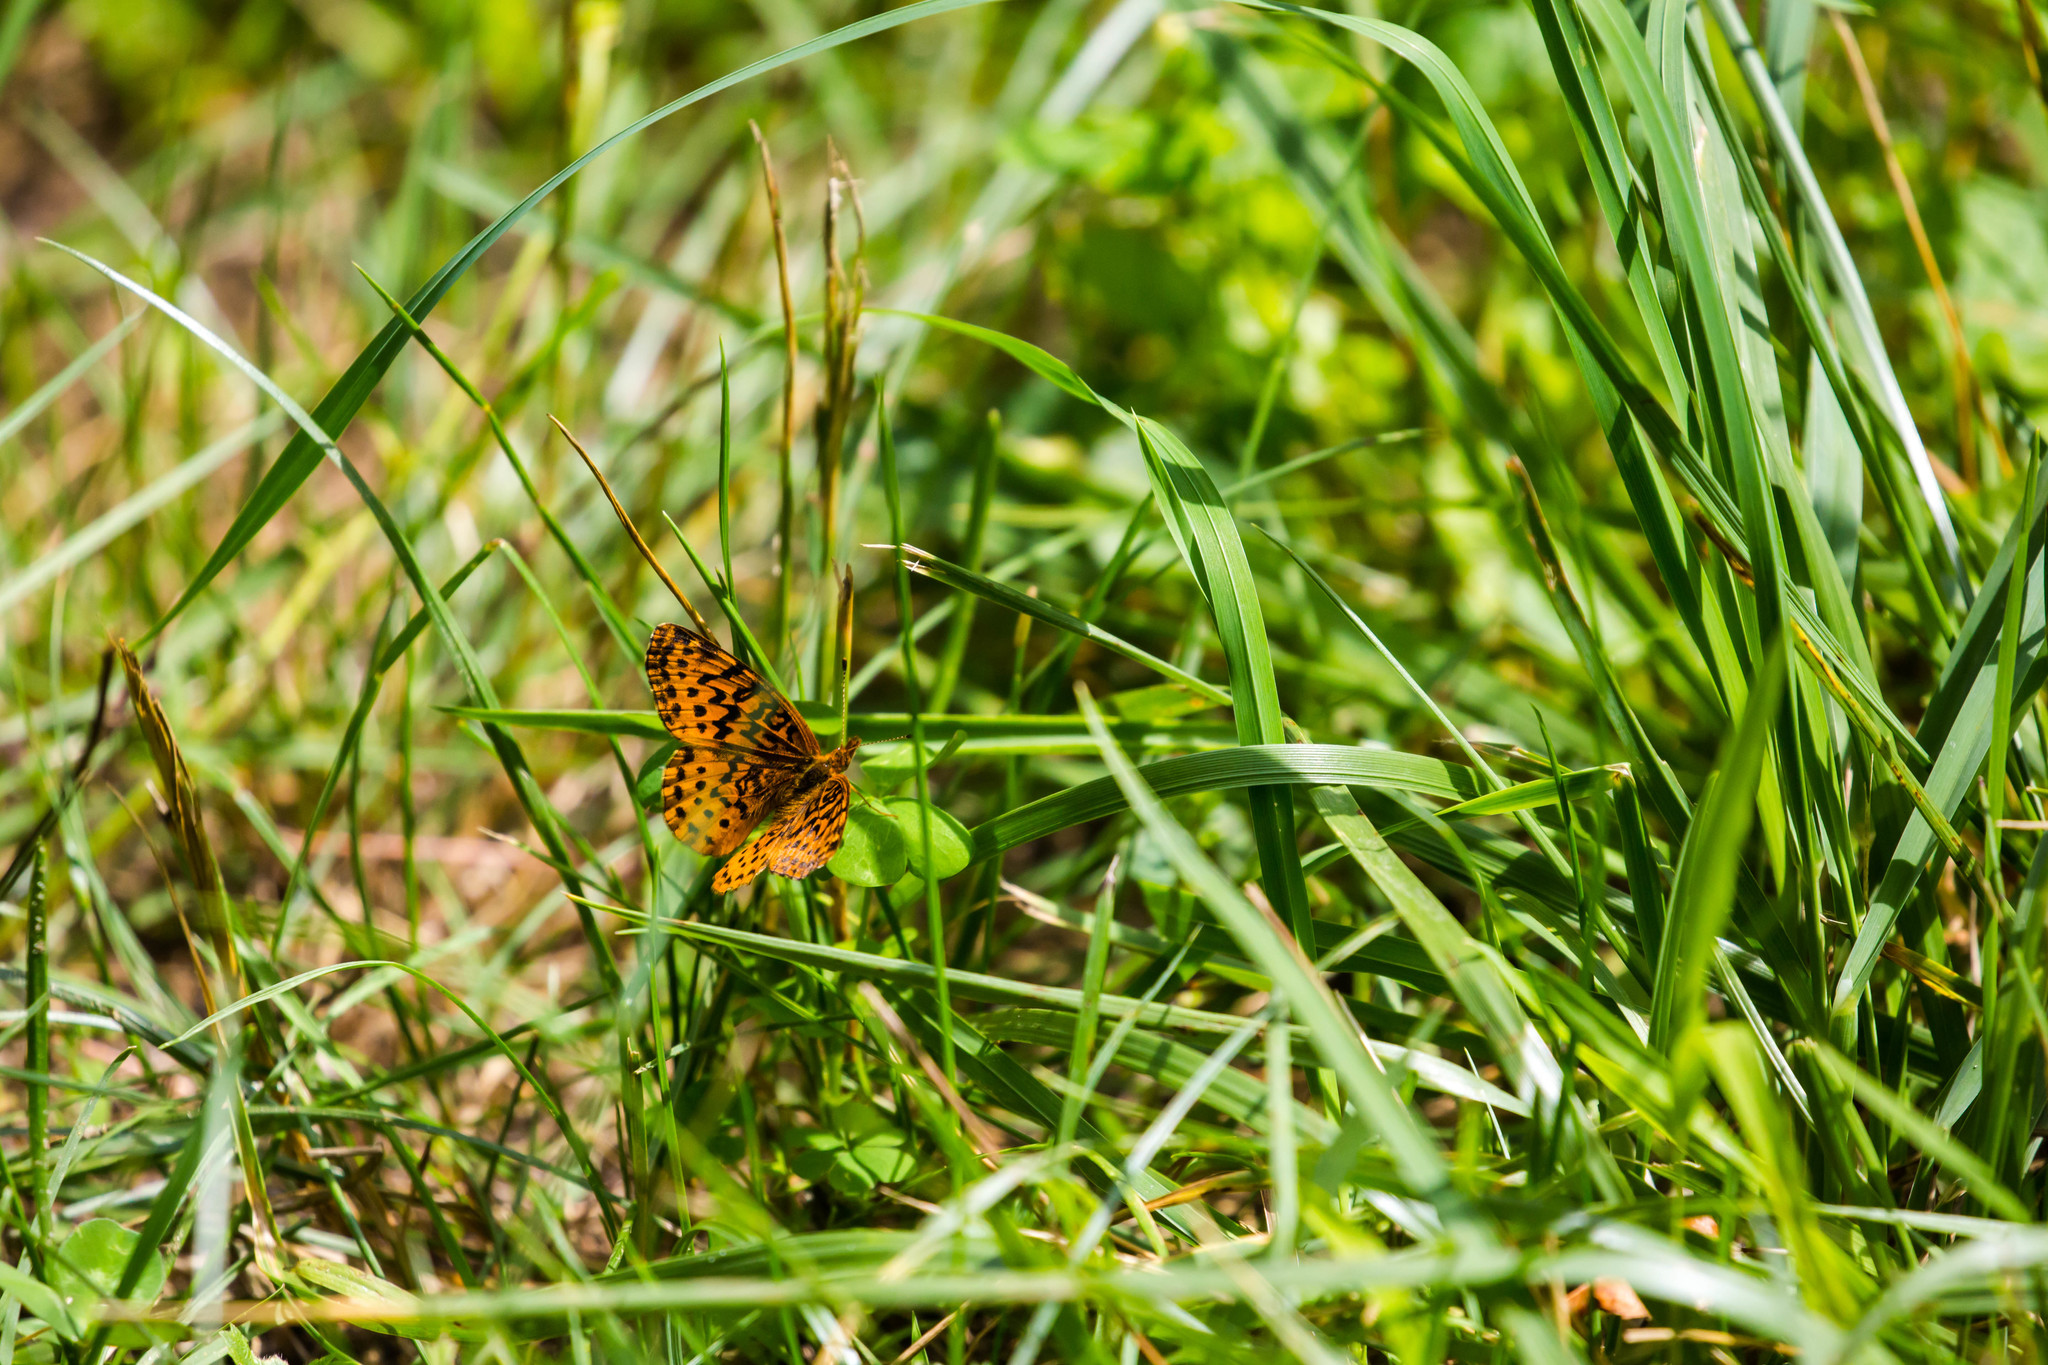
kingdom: Animalia
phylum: Arthropoda
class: Insecta
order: Lepidoptera
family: Nymphalidae
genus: Clossiana
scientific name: Clossiana toddi
